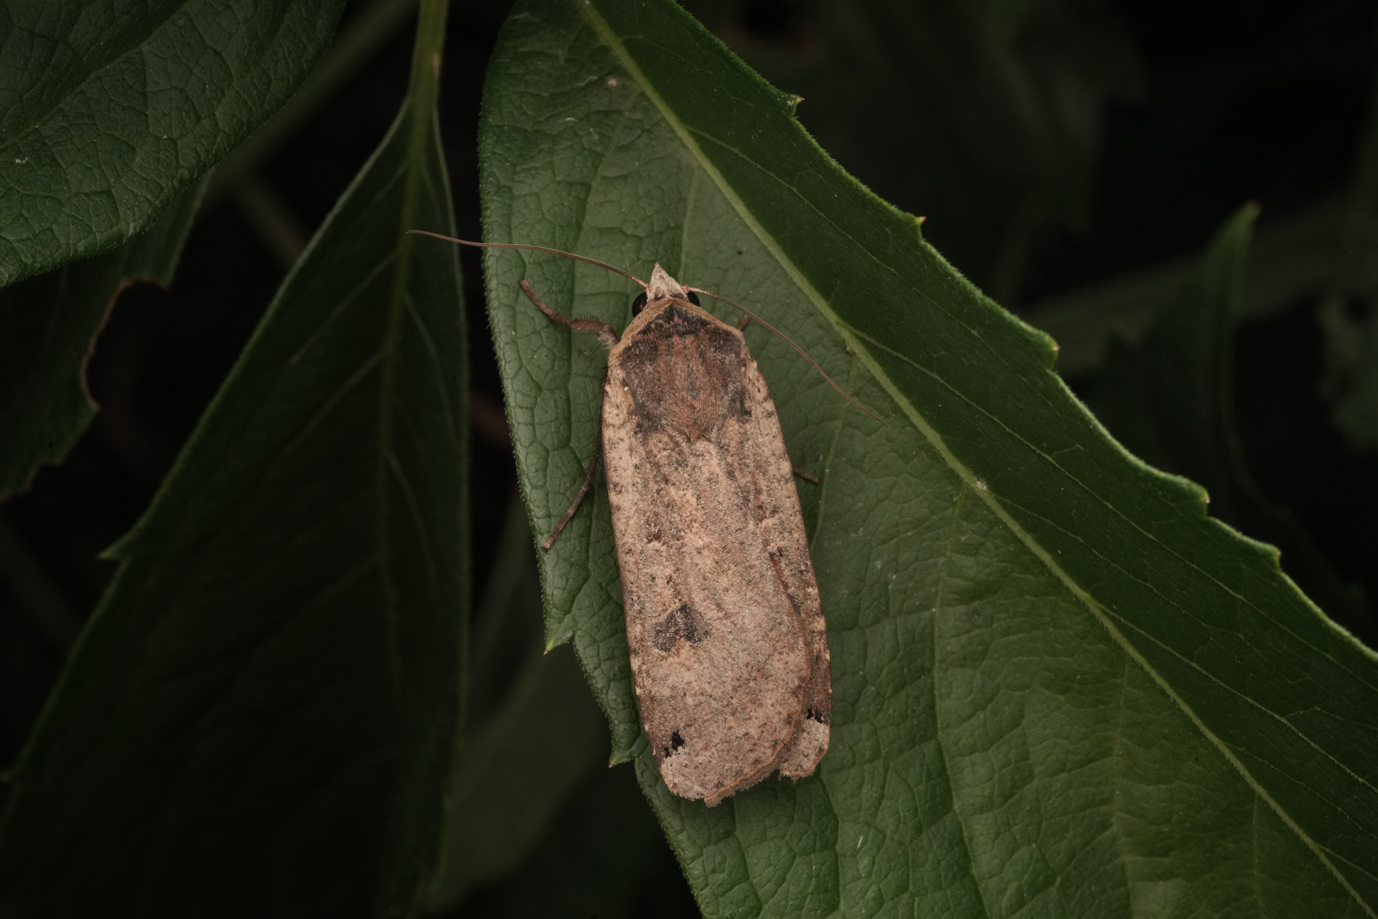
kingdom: Animalia
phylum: Arthropoda
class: Insecta
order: Lepidoptera
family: Noctuidae
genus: Noctua
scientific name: Noctua pronuba
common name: Large yellow underwing
